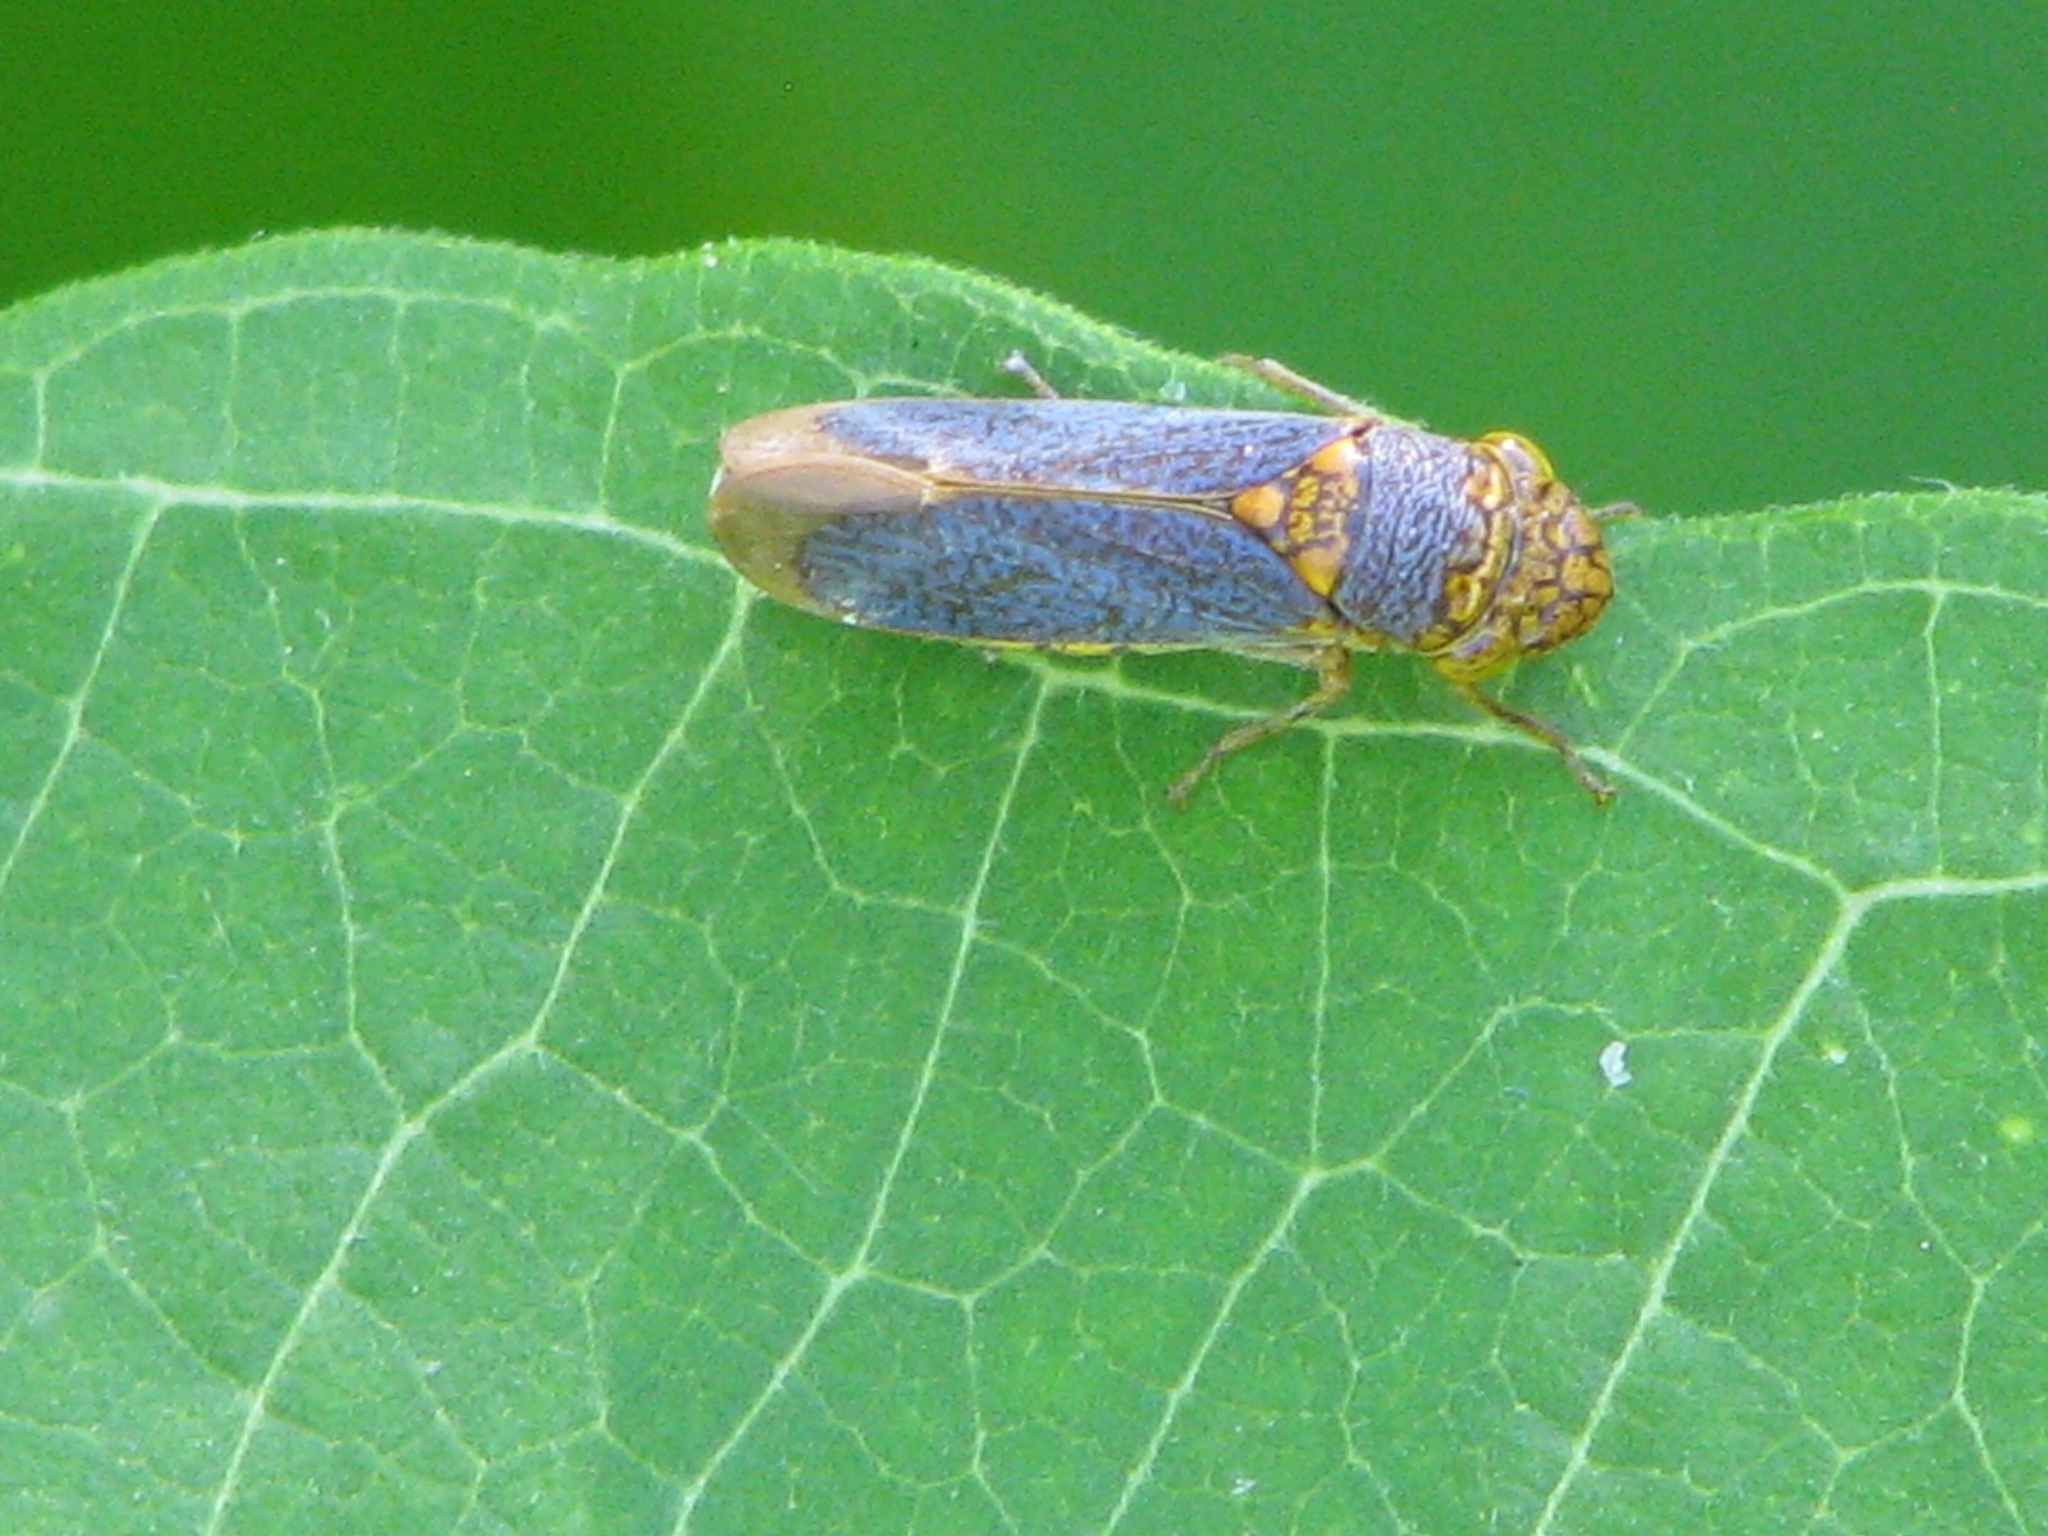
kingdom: Animalia
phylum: Arthropoda
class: Insecta
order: Hemiptera
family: Cicadellidae
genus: Oncometopia
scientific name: Oncometopia orbona
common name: Broad-headed sharpshooter
